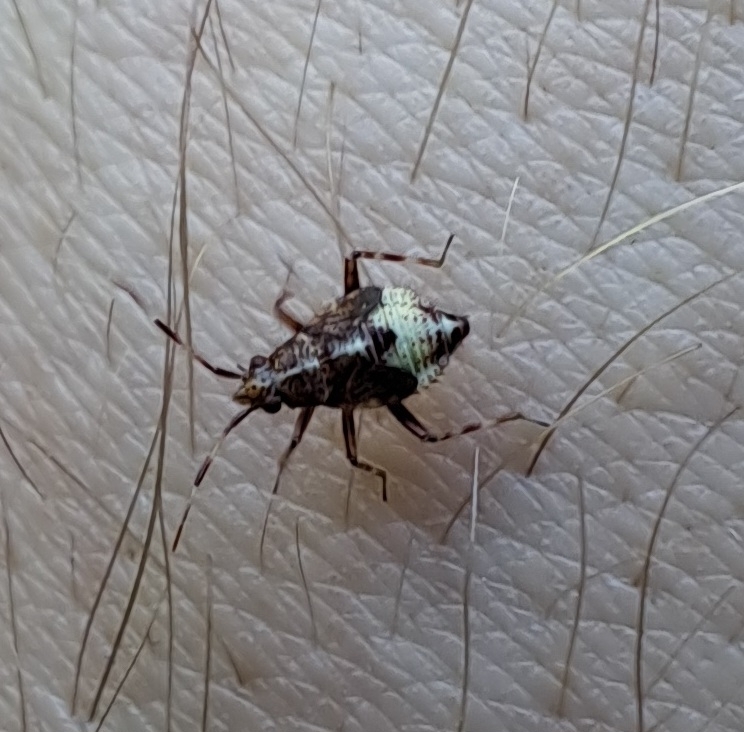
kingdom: Animalia
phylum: Arthropoda
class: Insecta
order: Hemiptera
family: Miridae
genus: Deraeocoris
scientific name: Deraeocoris flavilinea
